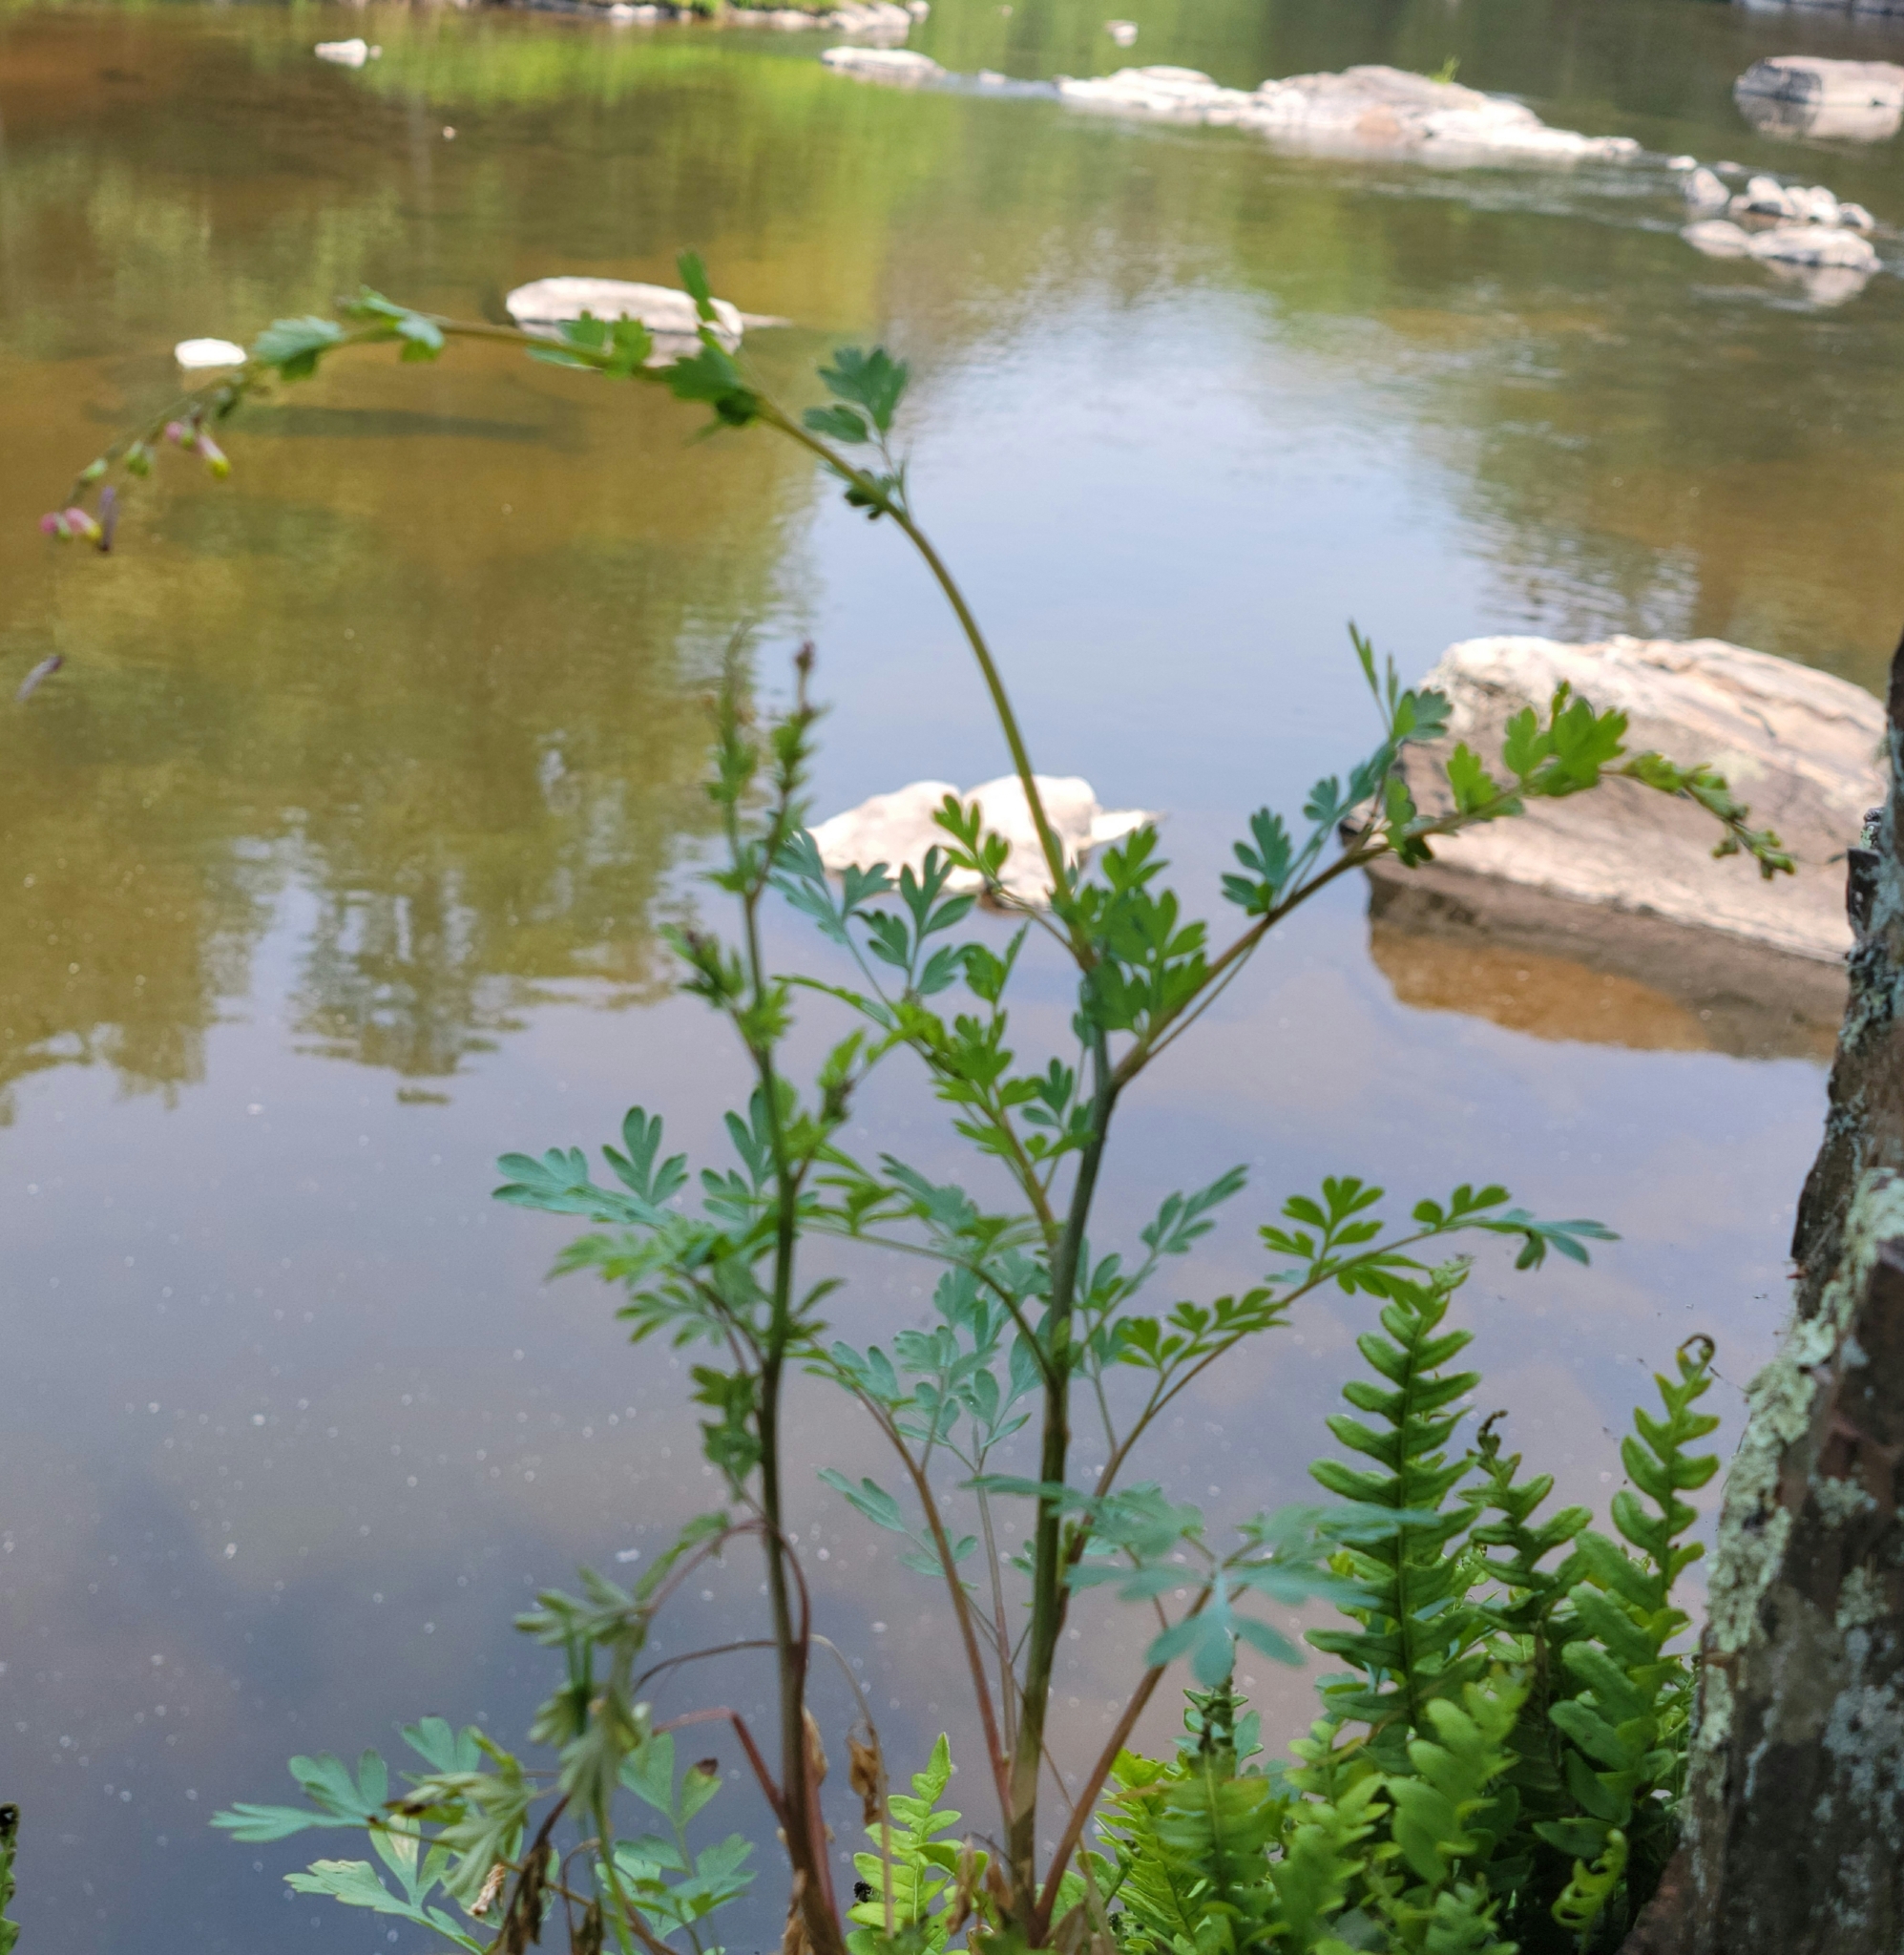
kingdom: Plantae
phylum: Tracheophyta
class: Magnoliopsida
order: Ranunculales
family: Papaveraceae
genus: Capnoides
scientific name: Capnoides sempervirens
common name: Rock harlequin
